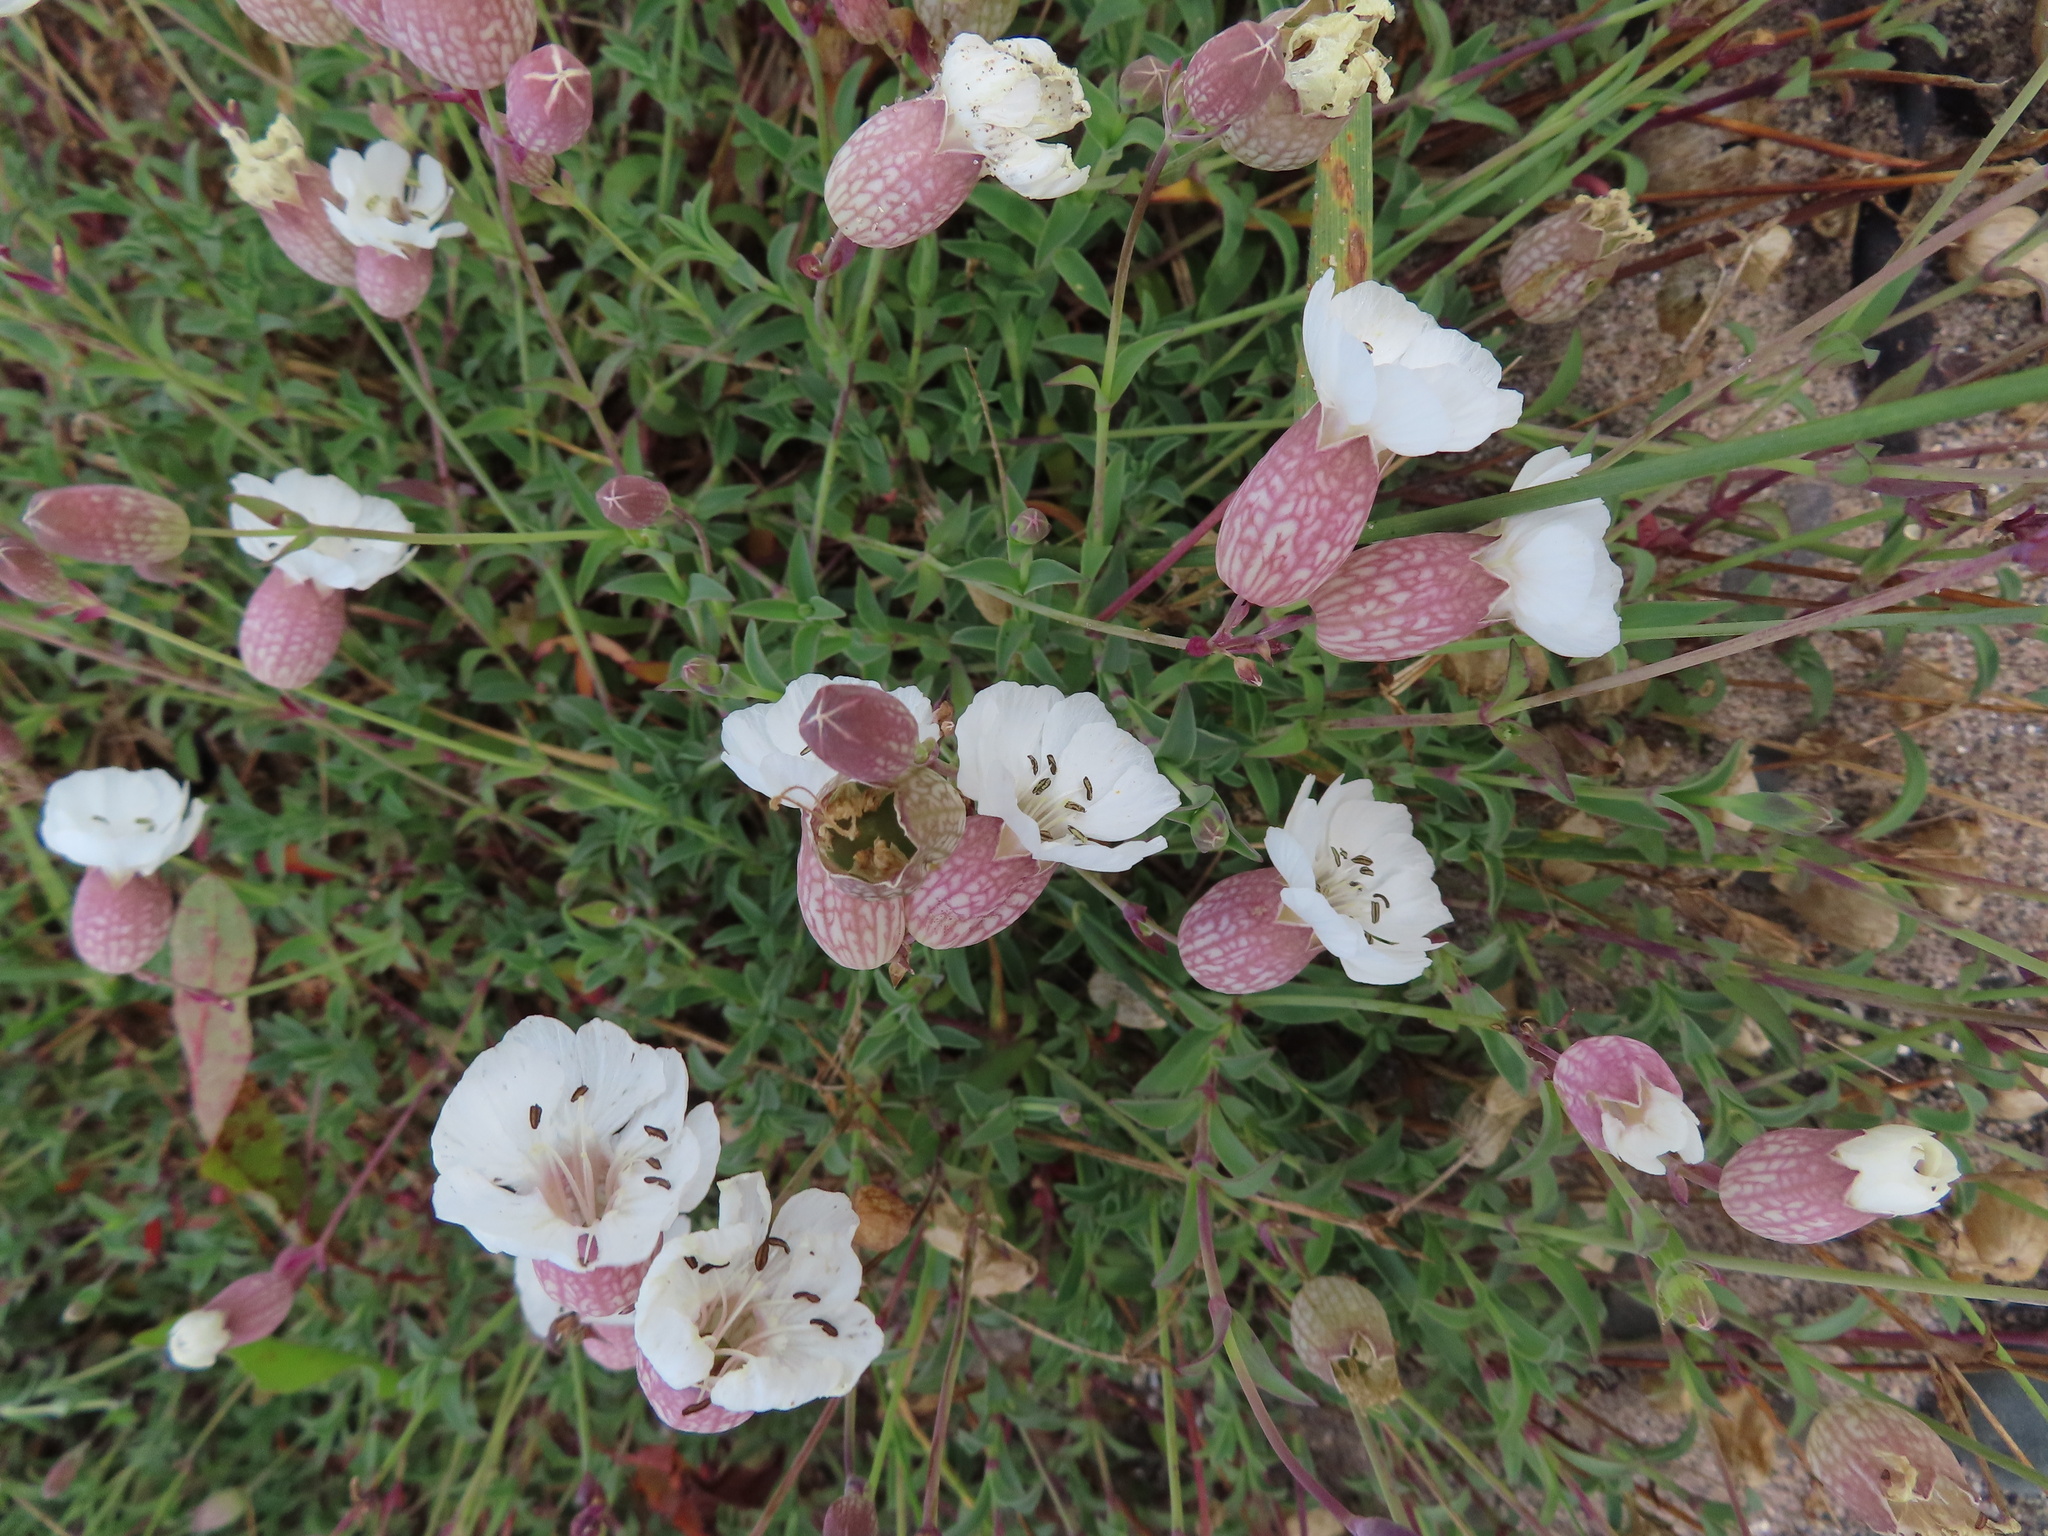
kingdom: Plantae
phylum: Tracheophyta
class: Magnoliopsida
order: Caryophyllales
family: Caryophyllaceae
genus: Silene
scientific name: Silene uniflora
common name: Sea campion
